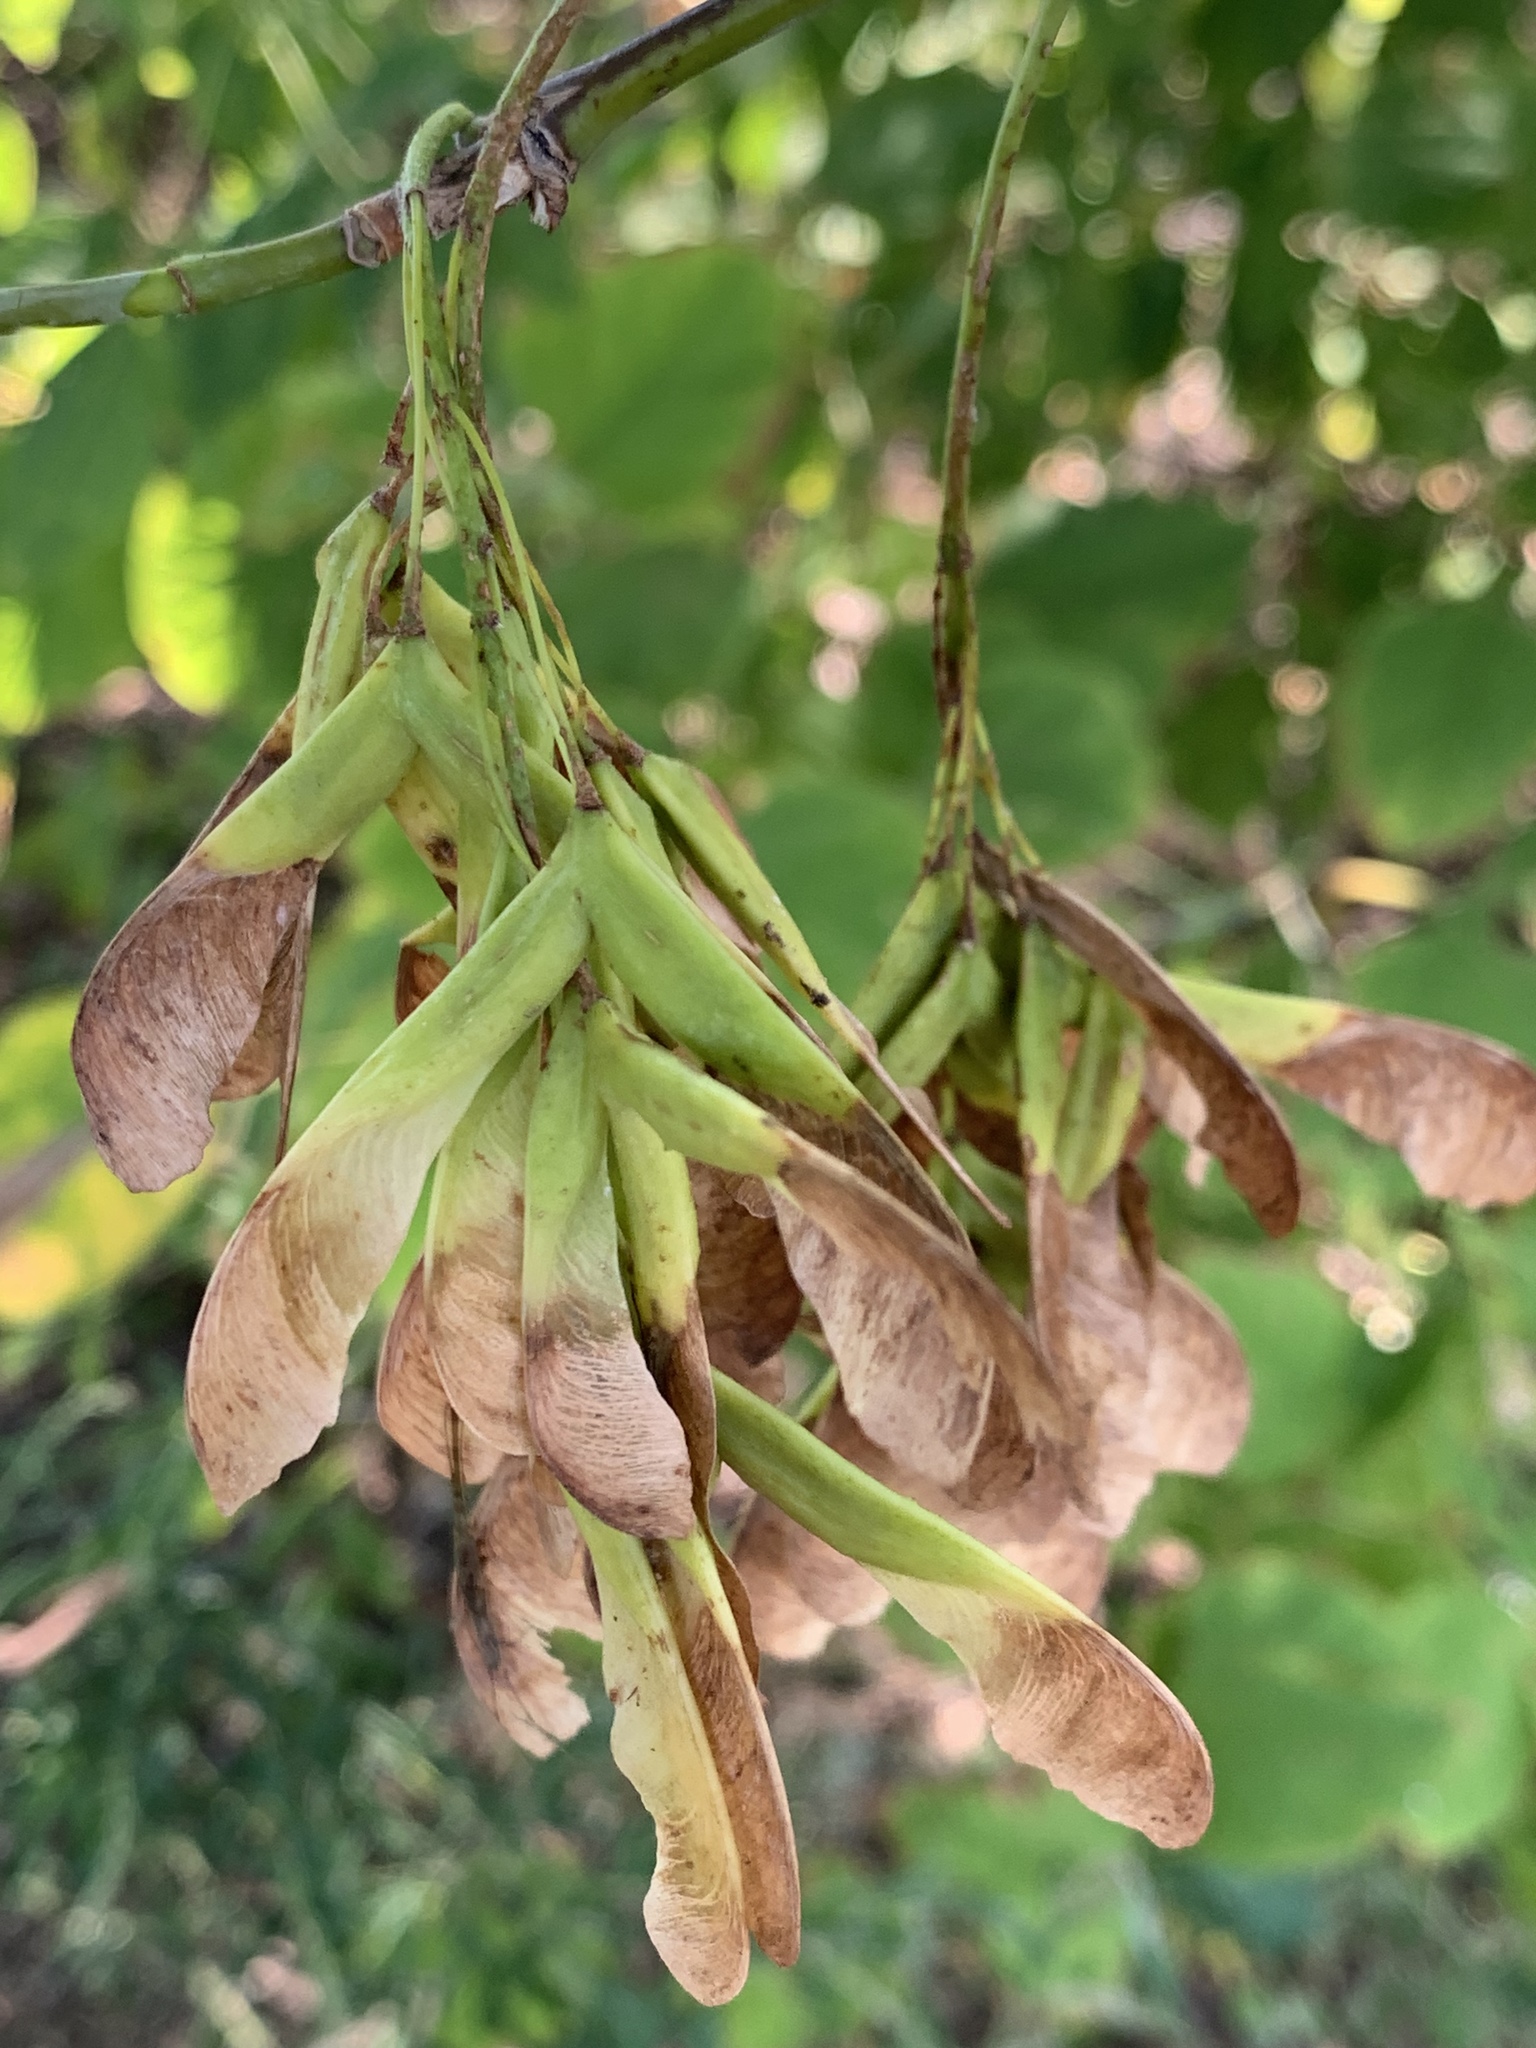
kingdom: Plantae
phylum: Tracheophyta
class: Magnoliopsida
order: Sapindales
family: Sapindaceae
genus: Acer
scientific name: Acer negundo
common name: Ashleaf maple
